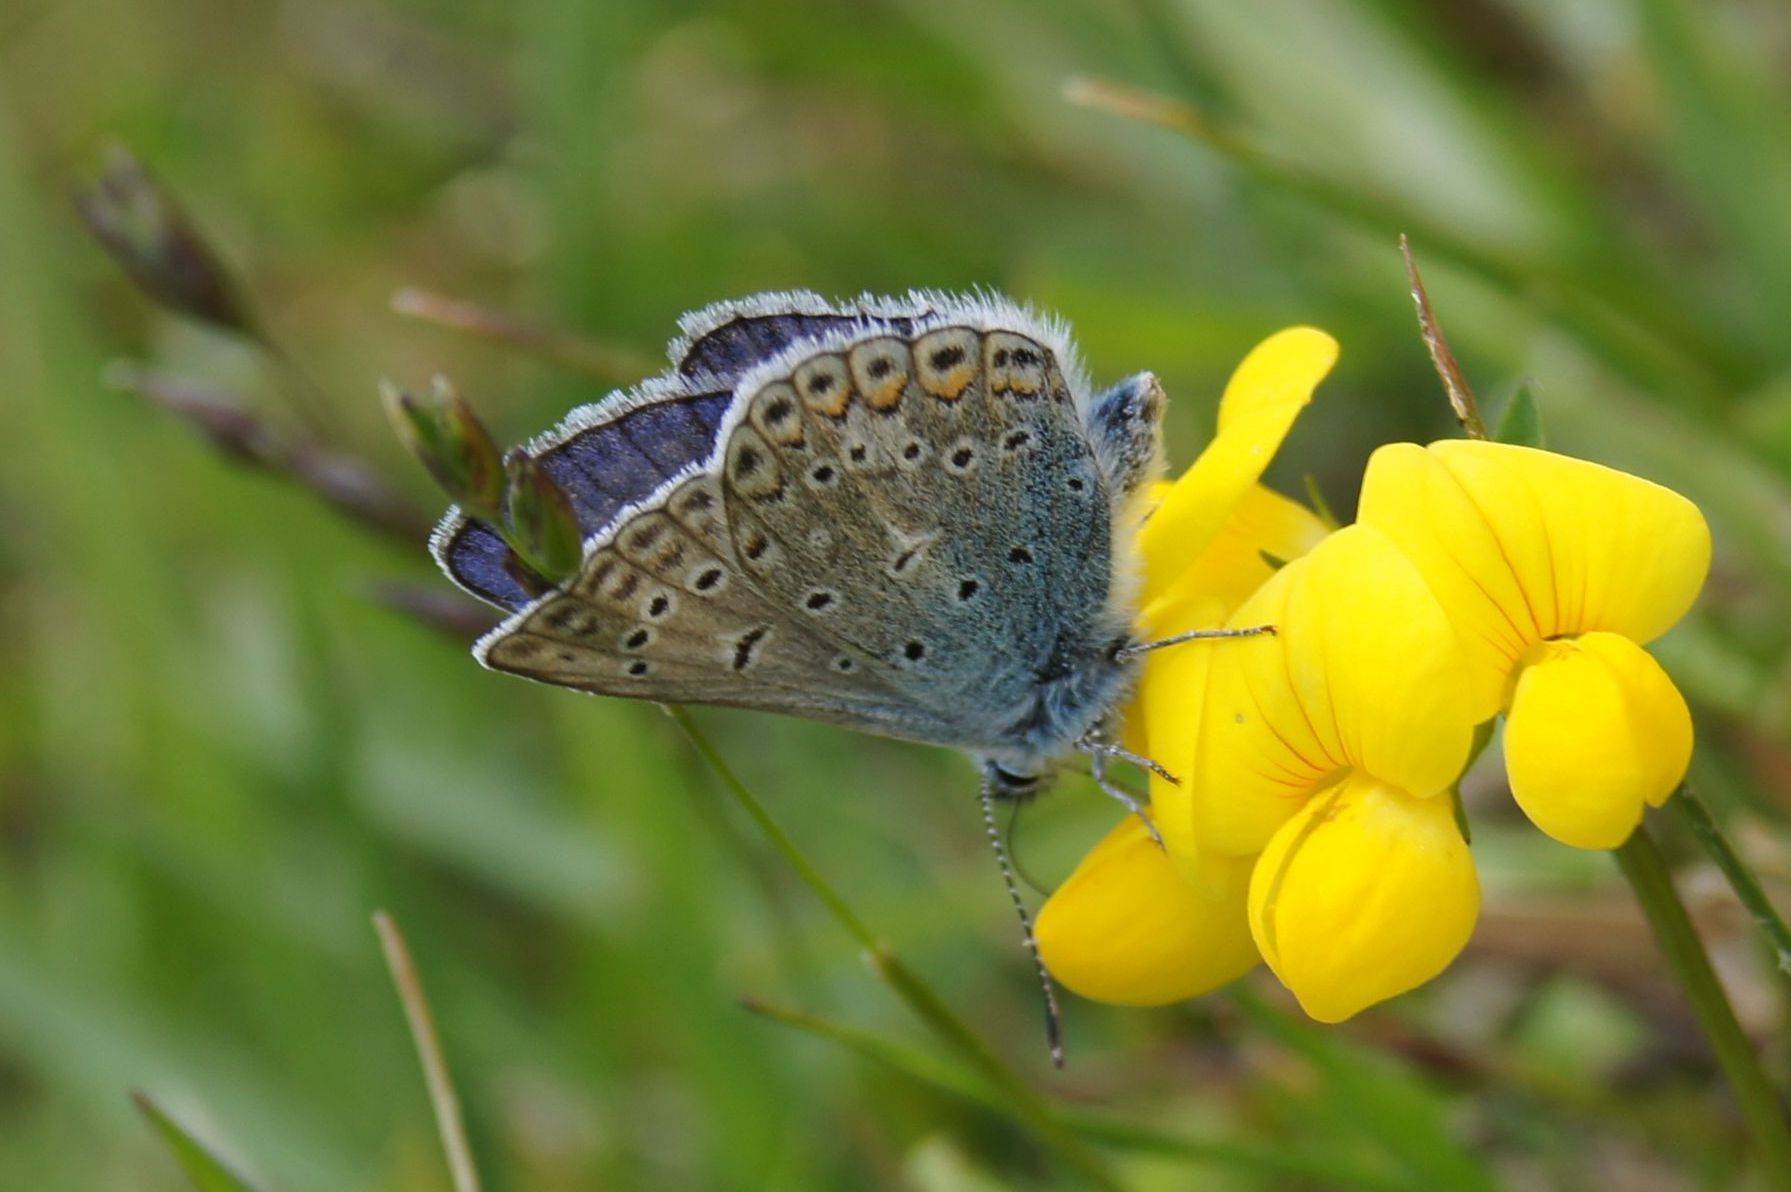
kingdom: Animalia
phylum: Arthropoda
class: Insecta
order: Lepidoptera
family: Lycaenidae
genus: Polyommatus
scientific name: Polyommatus icarus
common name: Common blue
